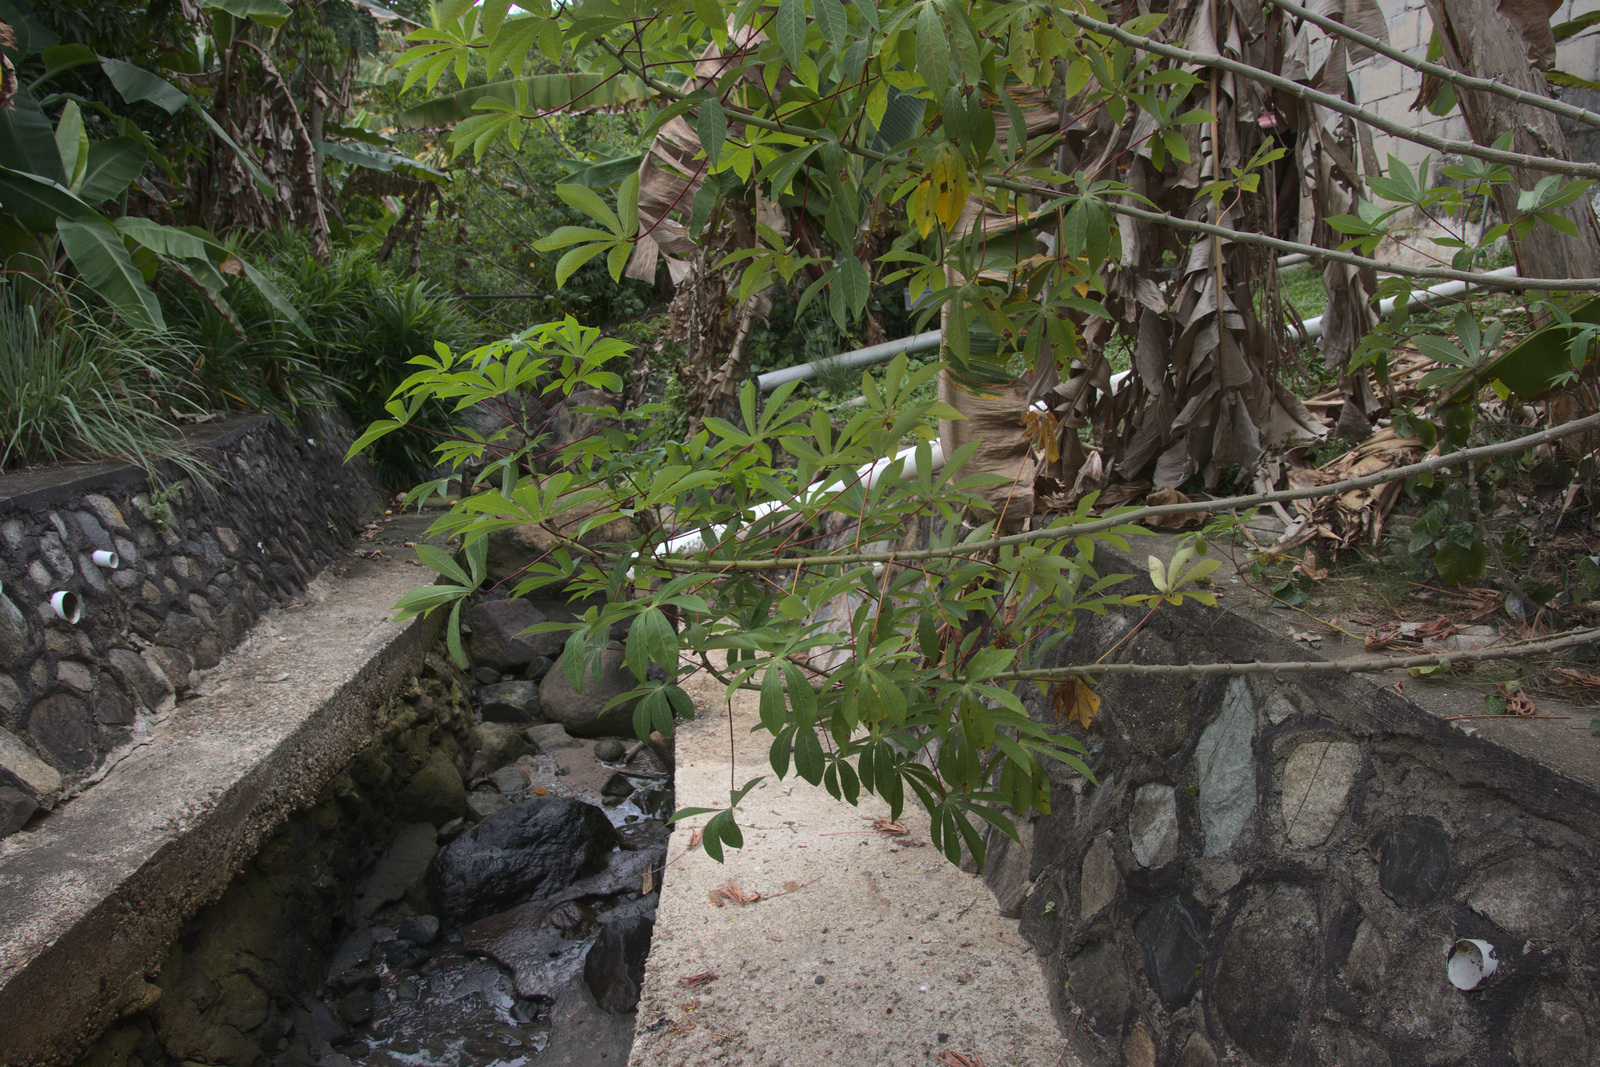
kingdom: Plantae
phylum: Tracheophyta
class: Magnoliopsida
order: Malpighiales
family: Euphorbiaceae
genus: Manihot
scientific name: Manihot esculenta
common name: Cassava
